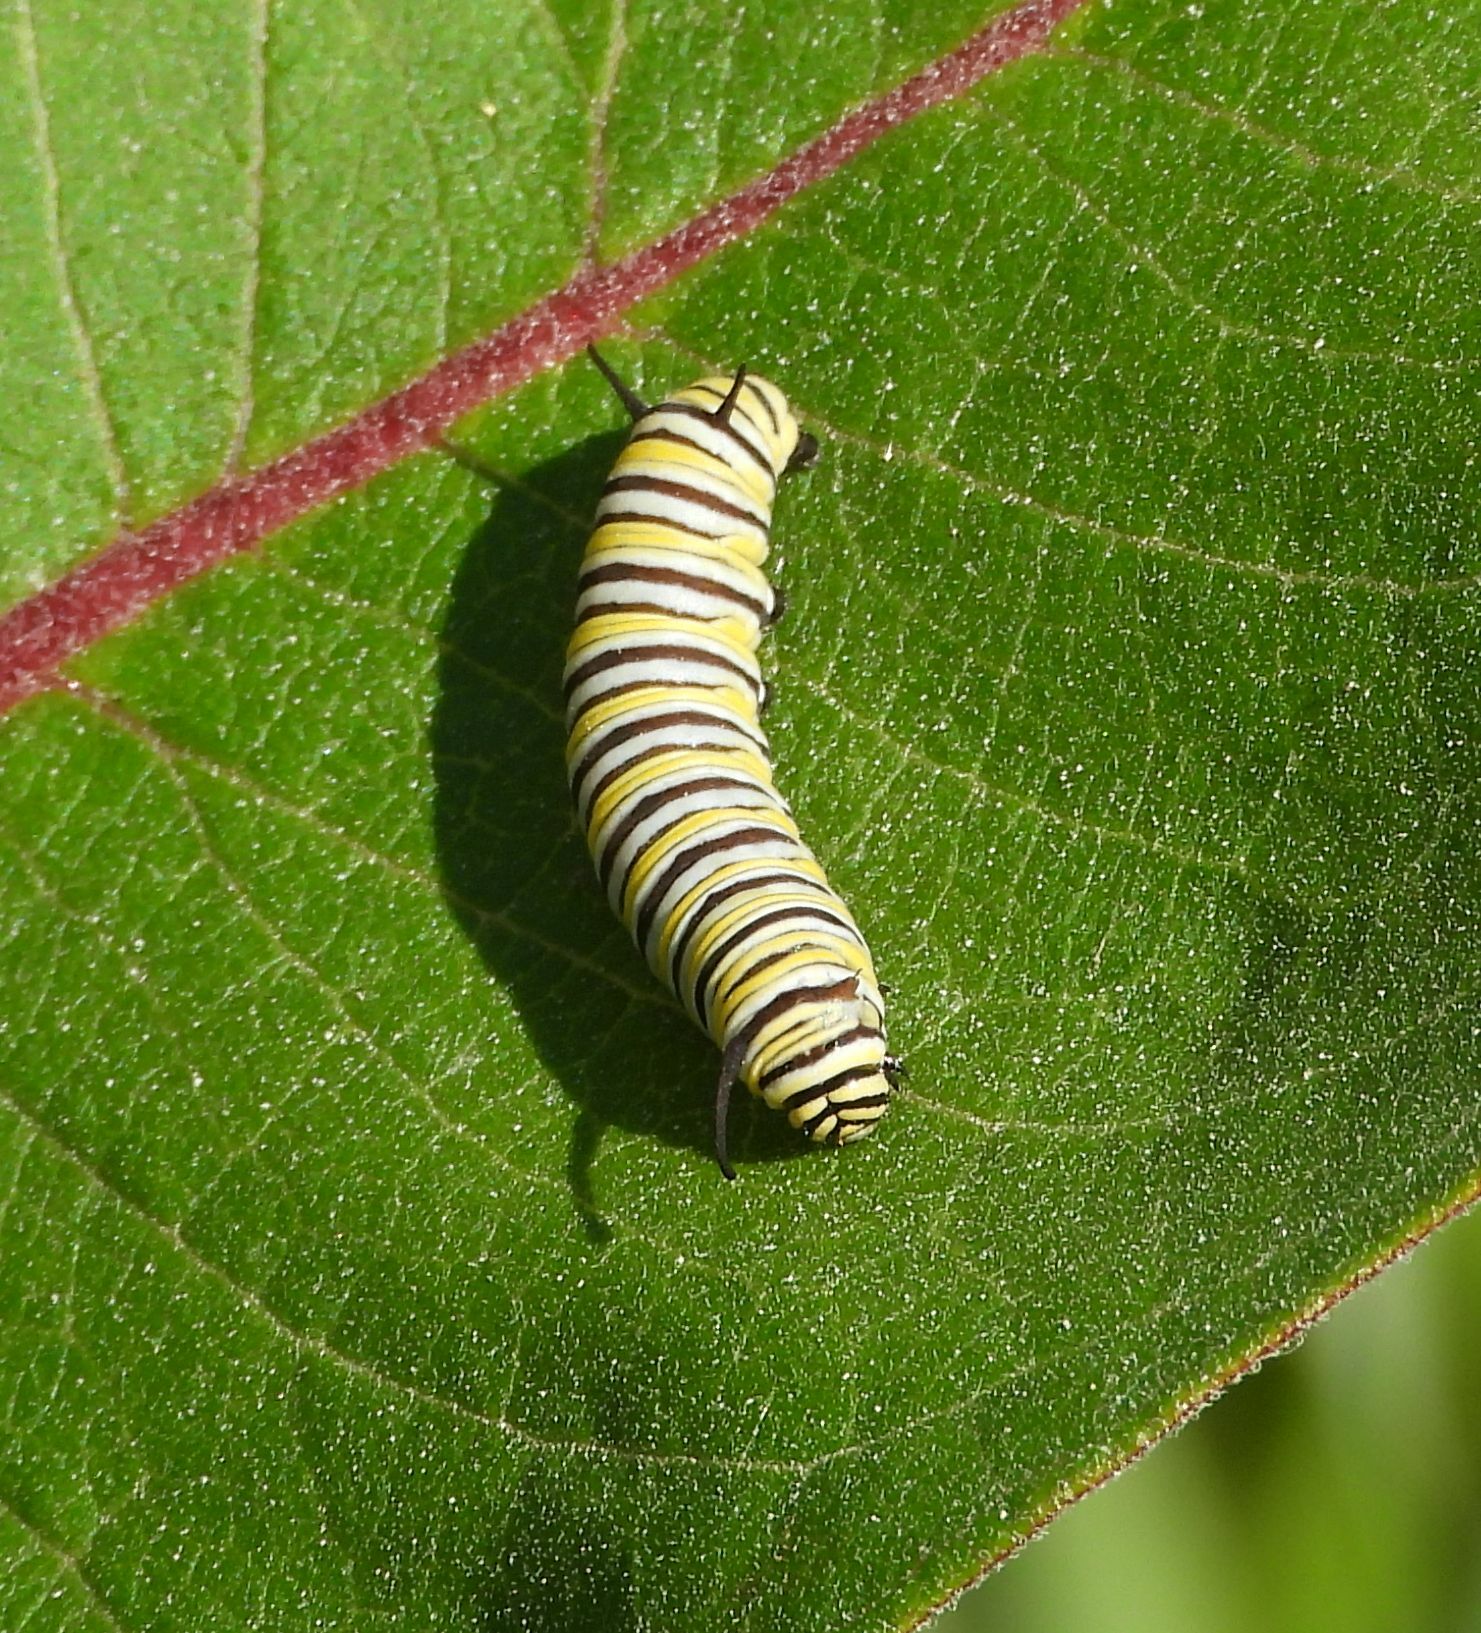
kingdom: Animalia
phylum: Arthropoda
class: Insecta
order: Lepidoptera
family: Nymphalidae
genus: Danaus
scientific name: Danaus plexippus
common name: Monarch
